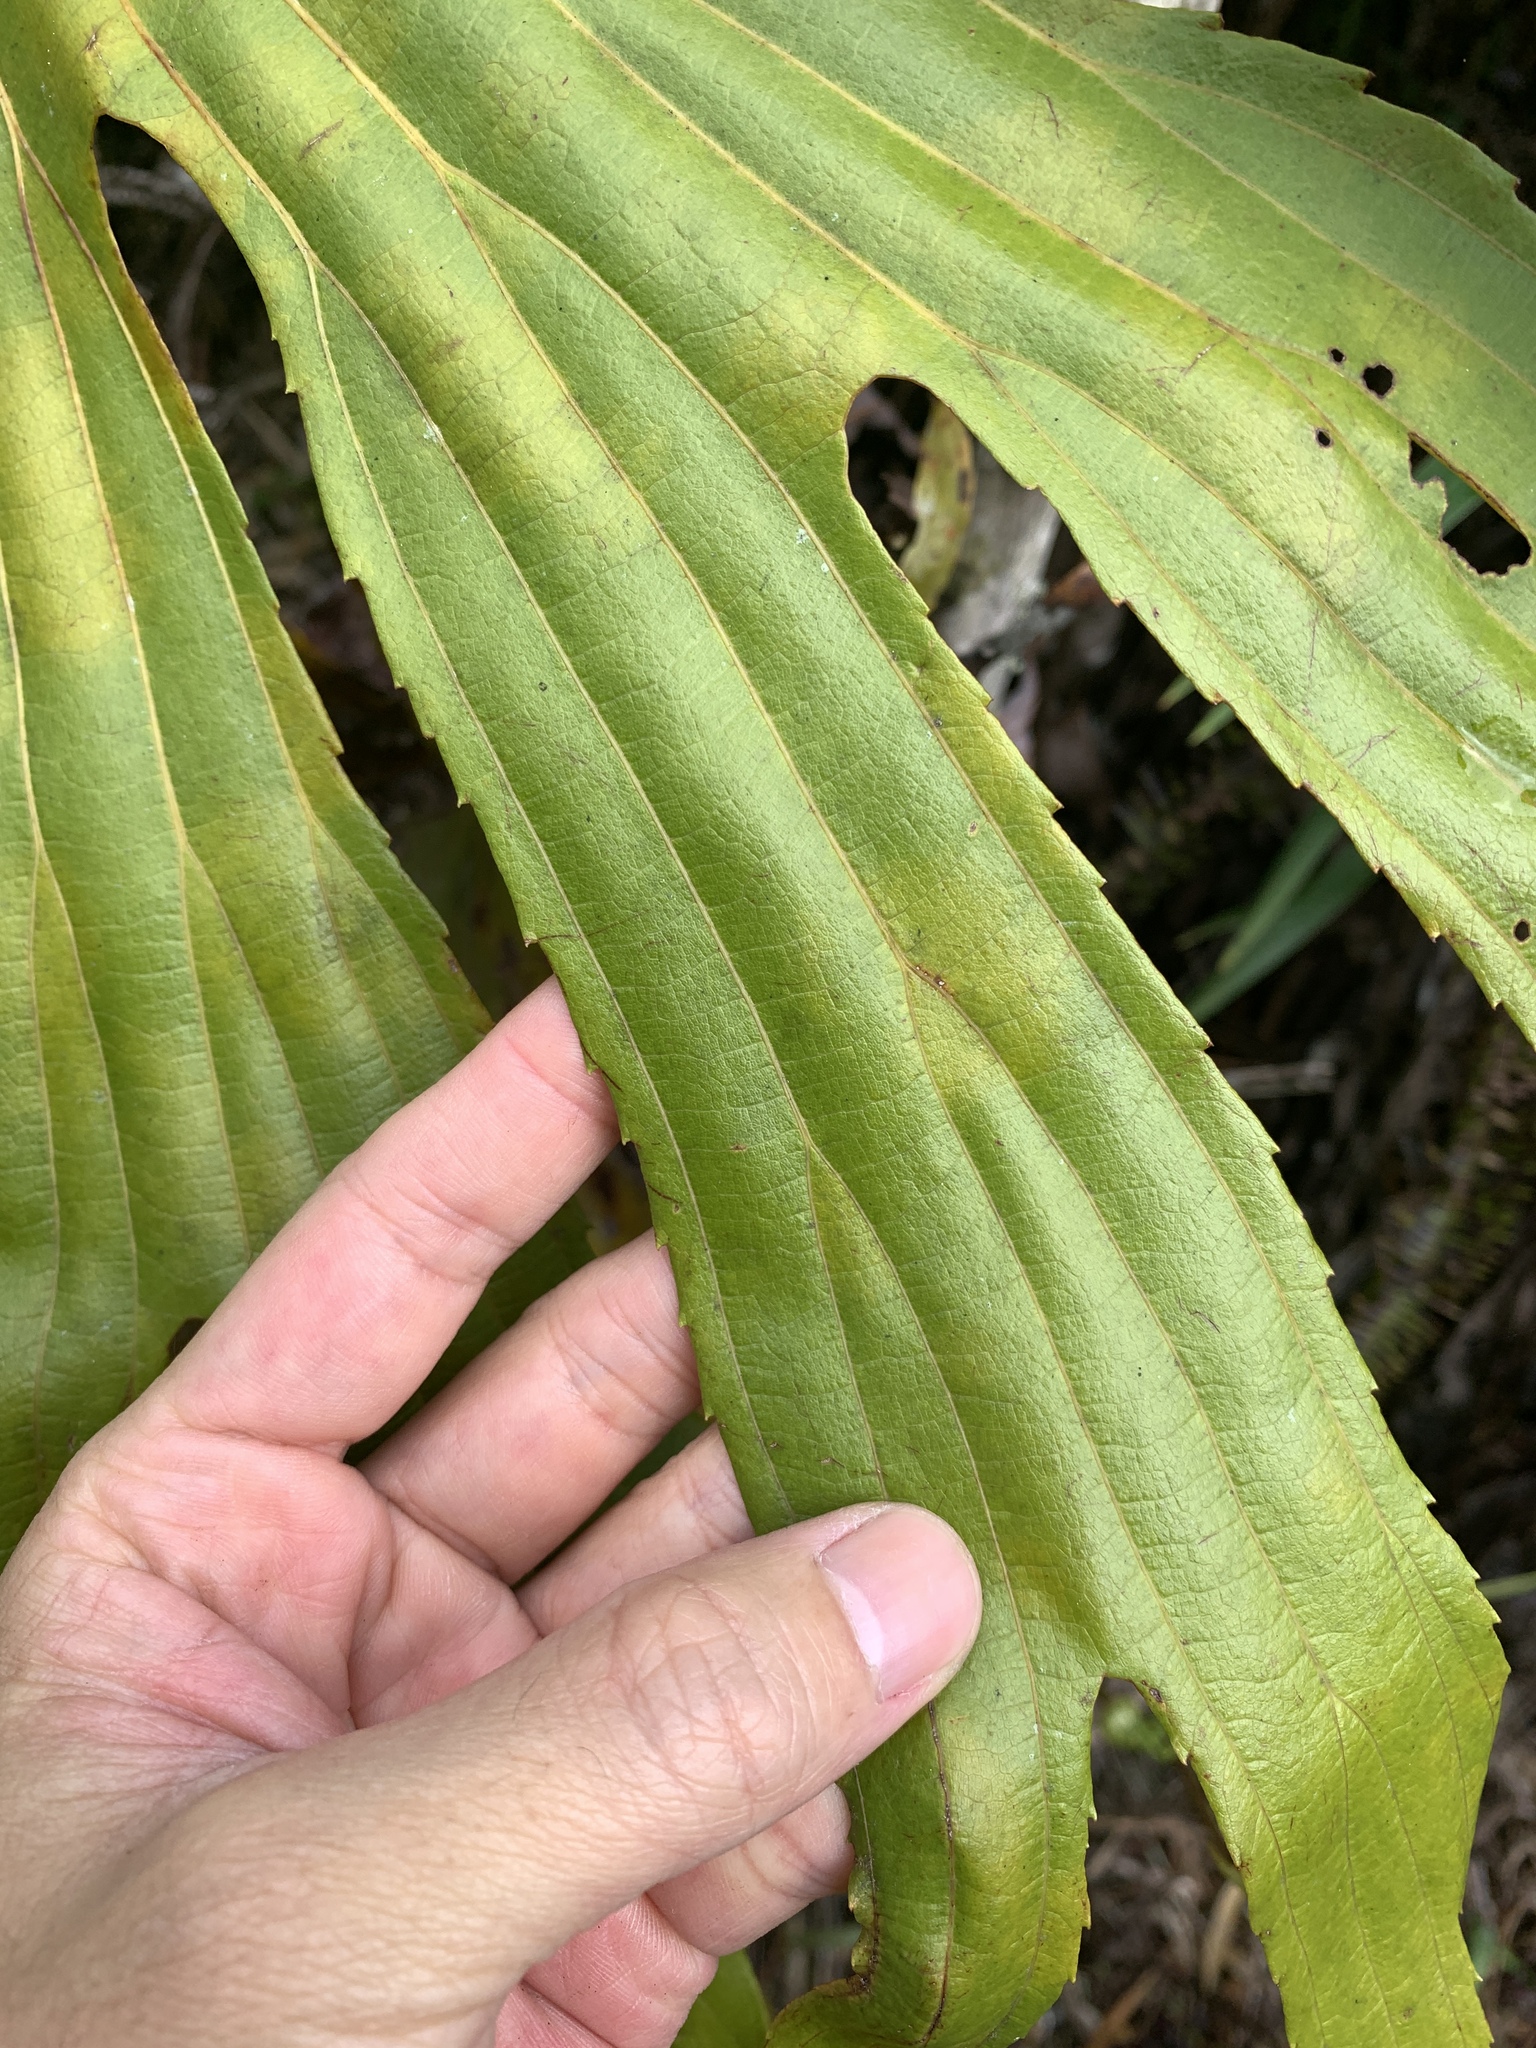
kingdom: Plantae
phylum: Tracheophyta
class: Polypodiopsida
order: Gleicheniales
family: Dipteridaceae
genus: Dipteris
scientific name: Dipteris conjugata
